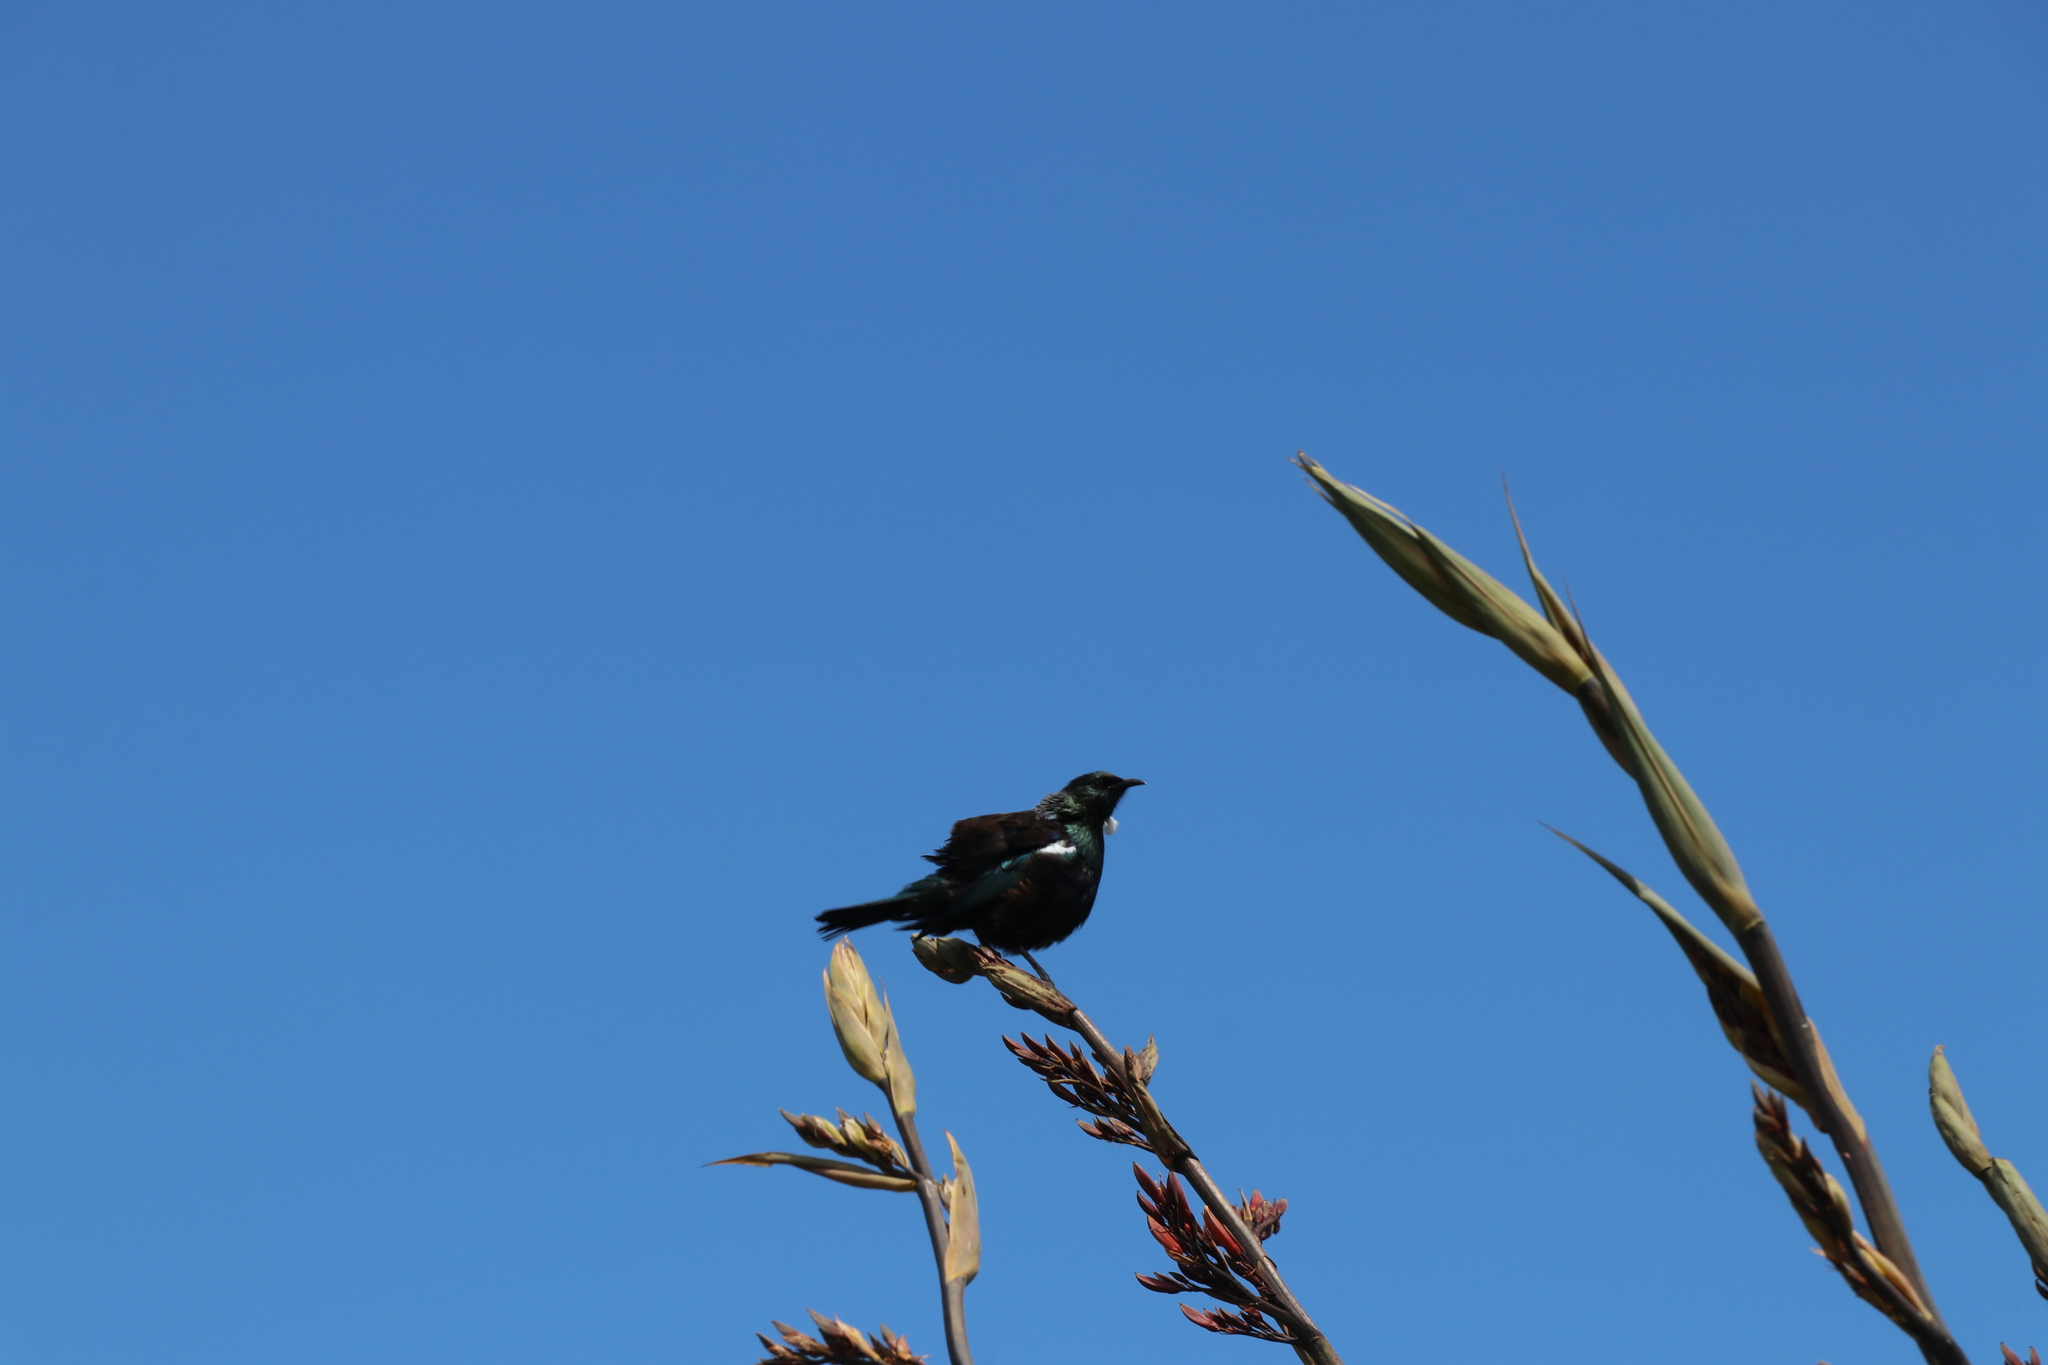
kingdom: Animalia
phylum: Chordata
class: Aves
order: Passeriformes
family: Meliphagidae
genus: Prosthemadera
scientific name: Prosthemadera novaeseelandiae
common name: Tui
